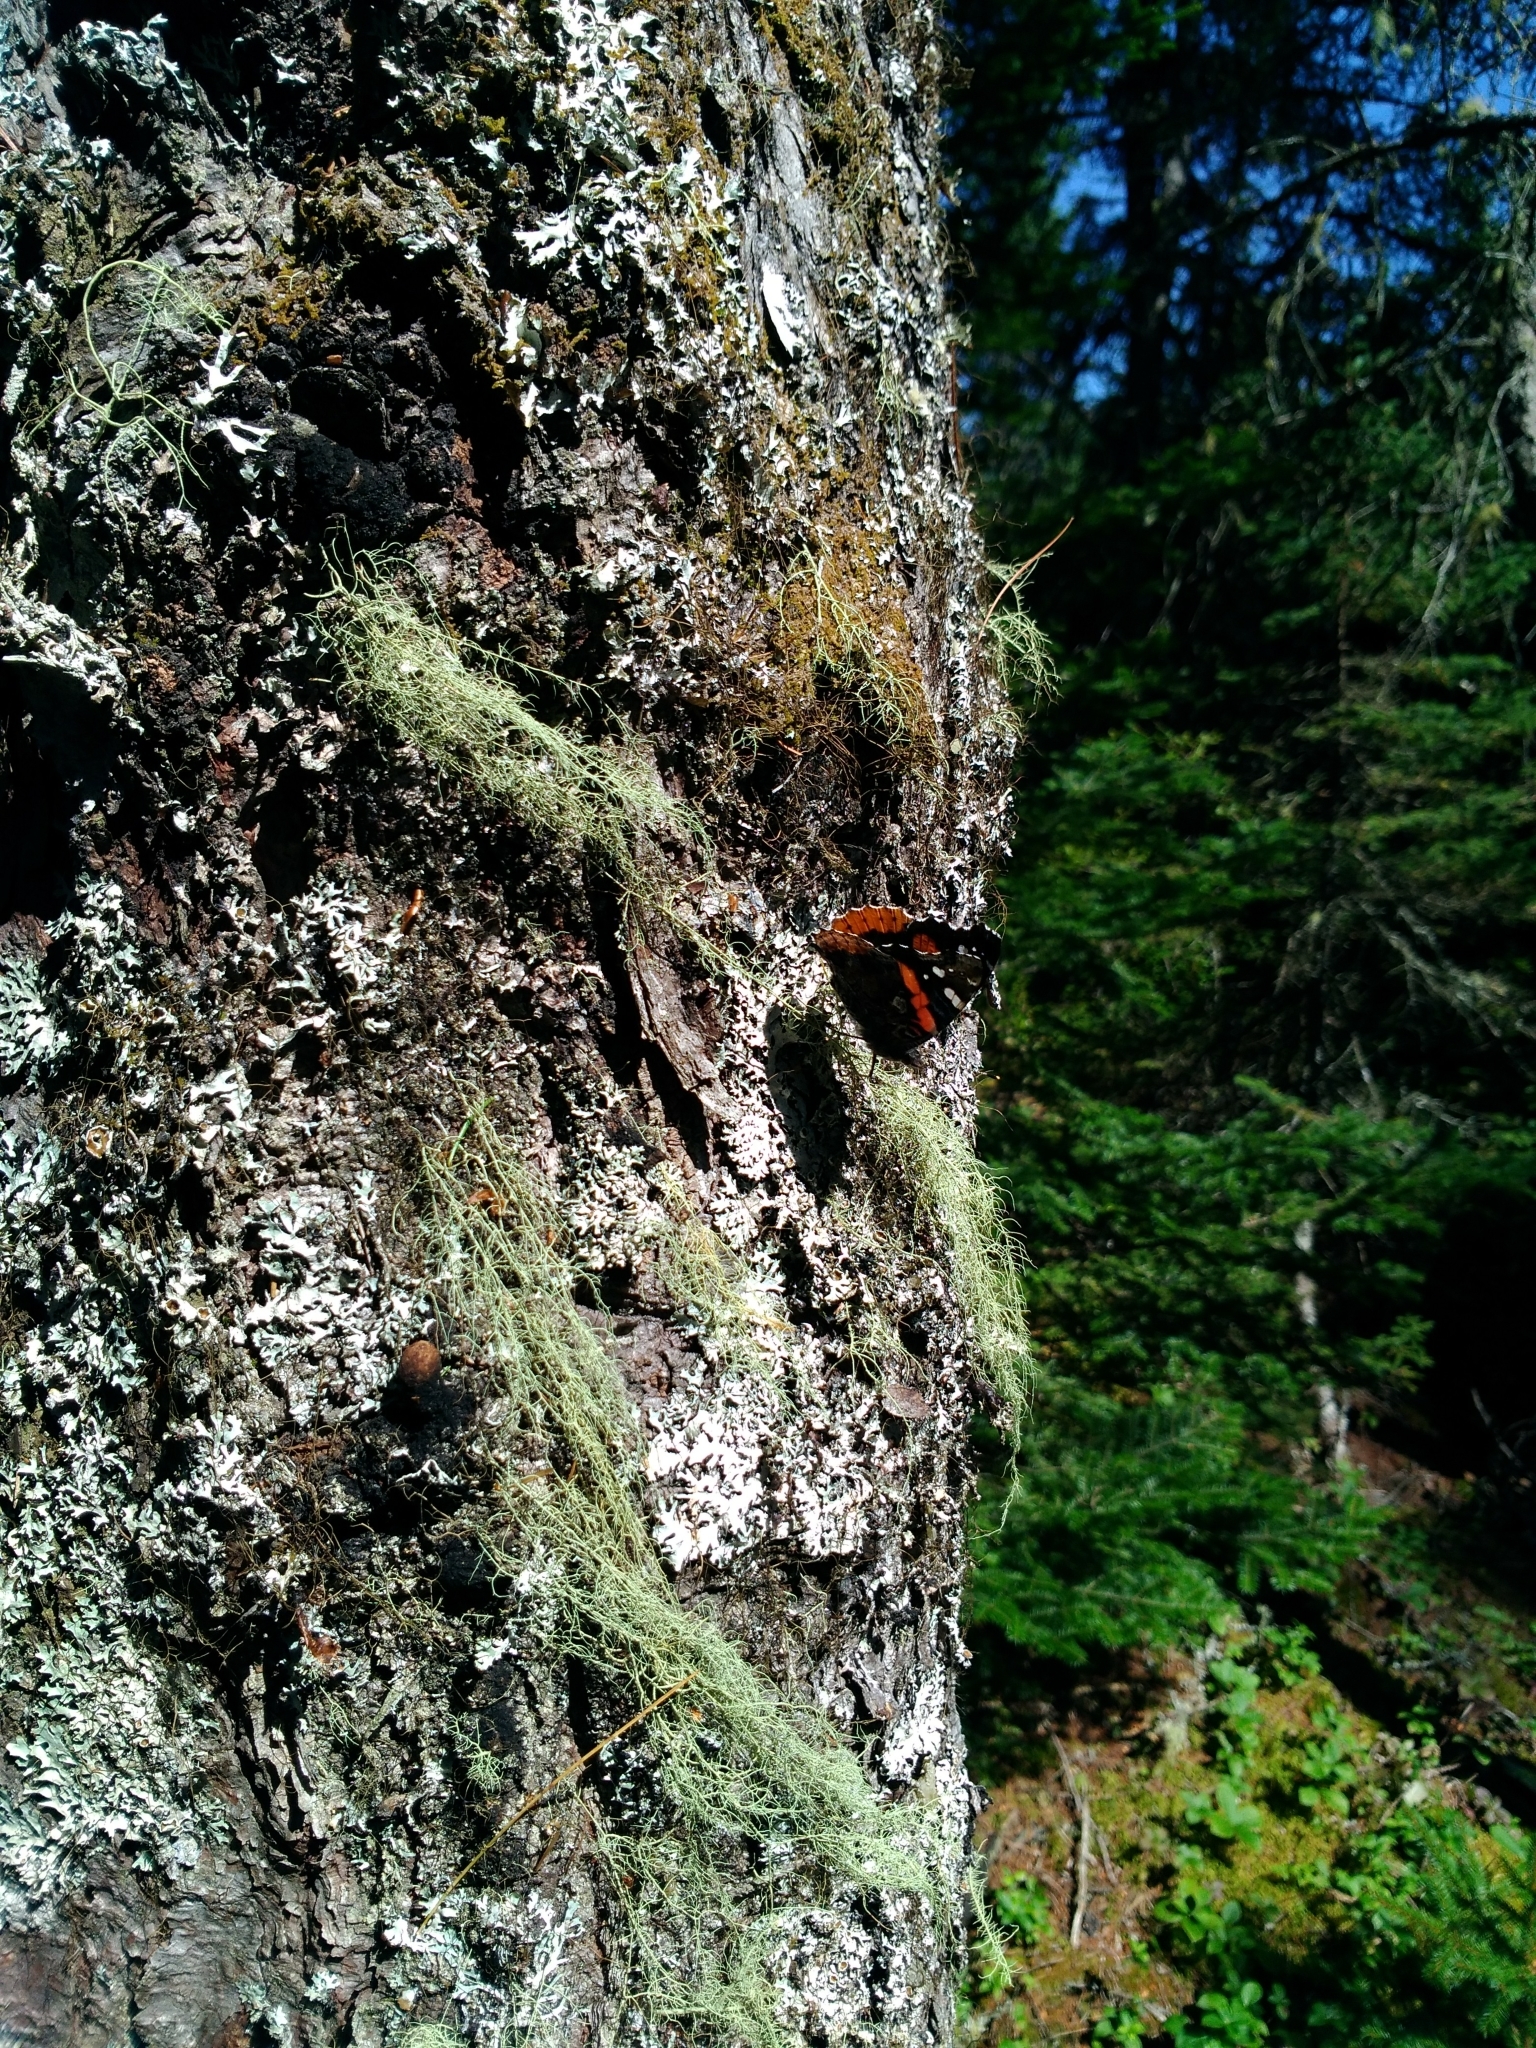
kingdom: Animalia
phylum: Arthropoda
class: Insecta
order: Lepidoptera
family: Nymphalidae
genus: Vanessa
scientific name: Vanessa atalanta
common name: Red admiral
